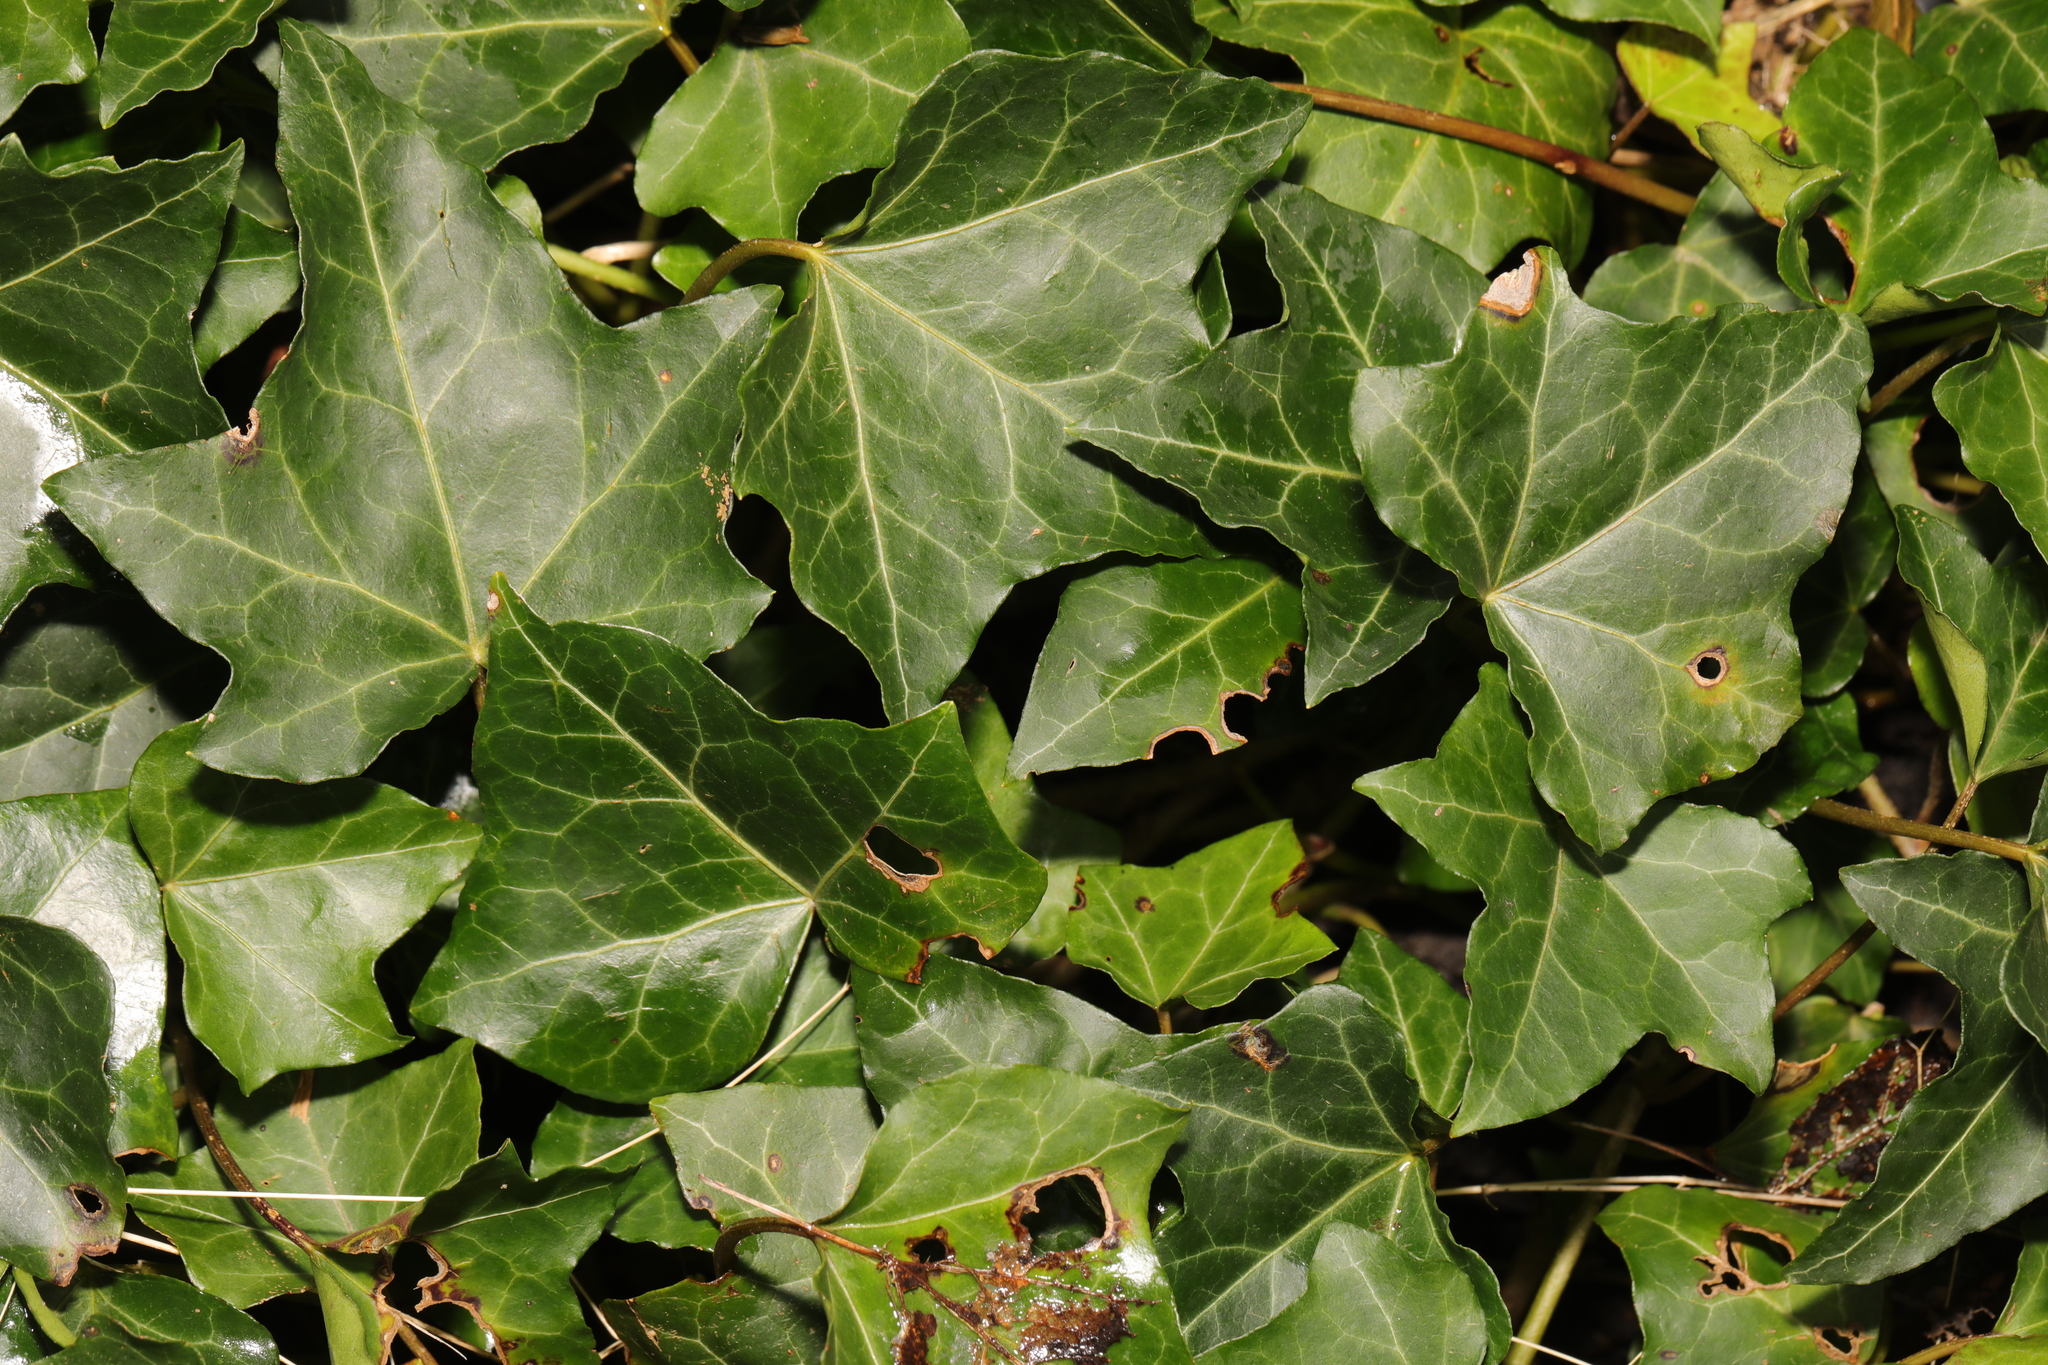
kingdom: Plantae
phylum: Tracheophyta
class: Magnoliopsida
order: Apiales
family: Araliaceae
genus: Hedera
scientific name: Hedera helix
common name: Ivy
